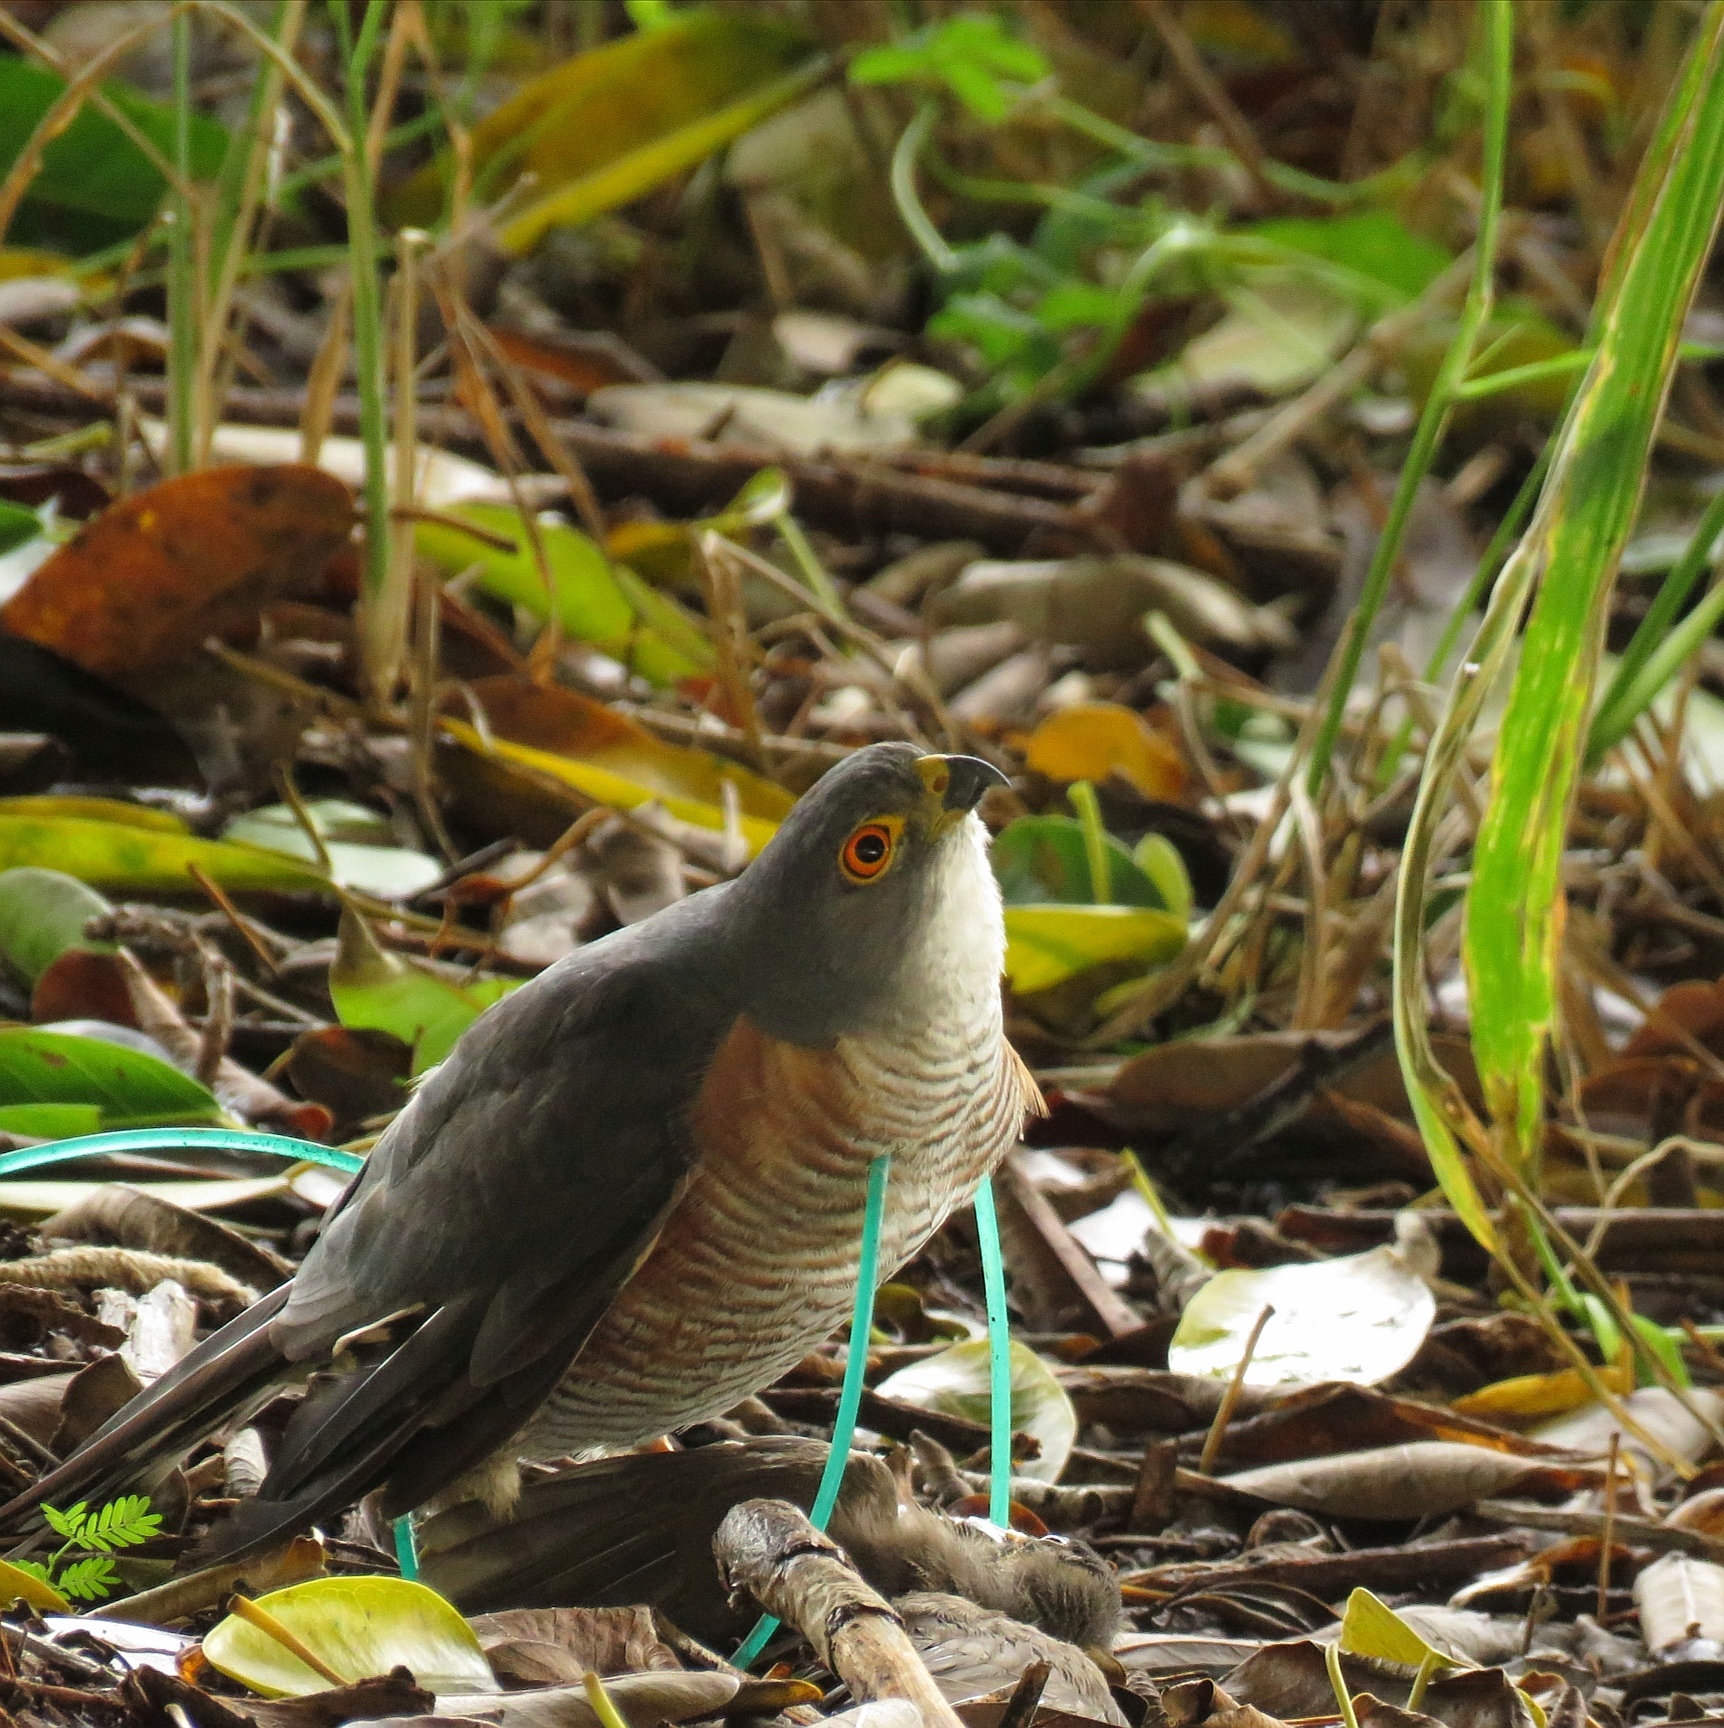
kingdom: Animalia
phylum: Chordata
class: Aves
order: Accipitriformes
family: Accipitridae
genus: Accipiter
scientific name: Accipiter minullus
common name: Little sparrowhawk
